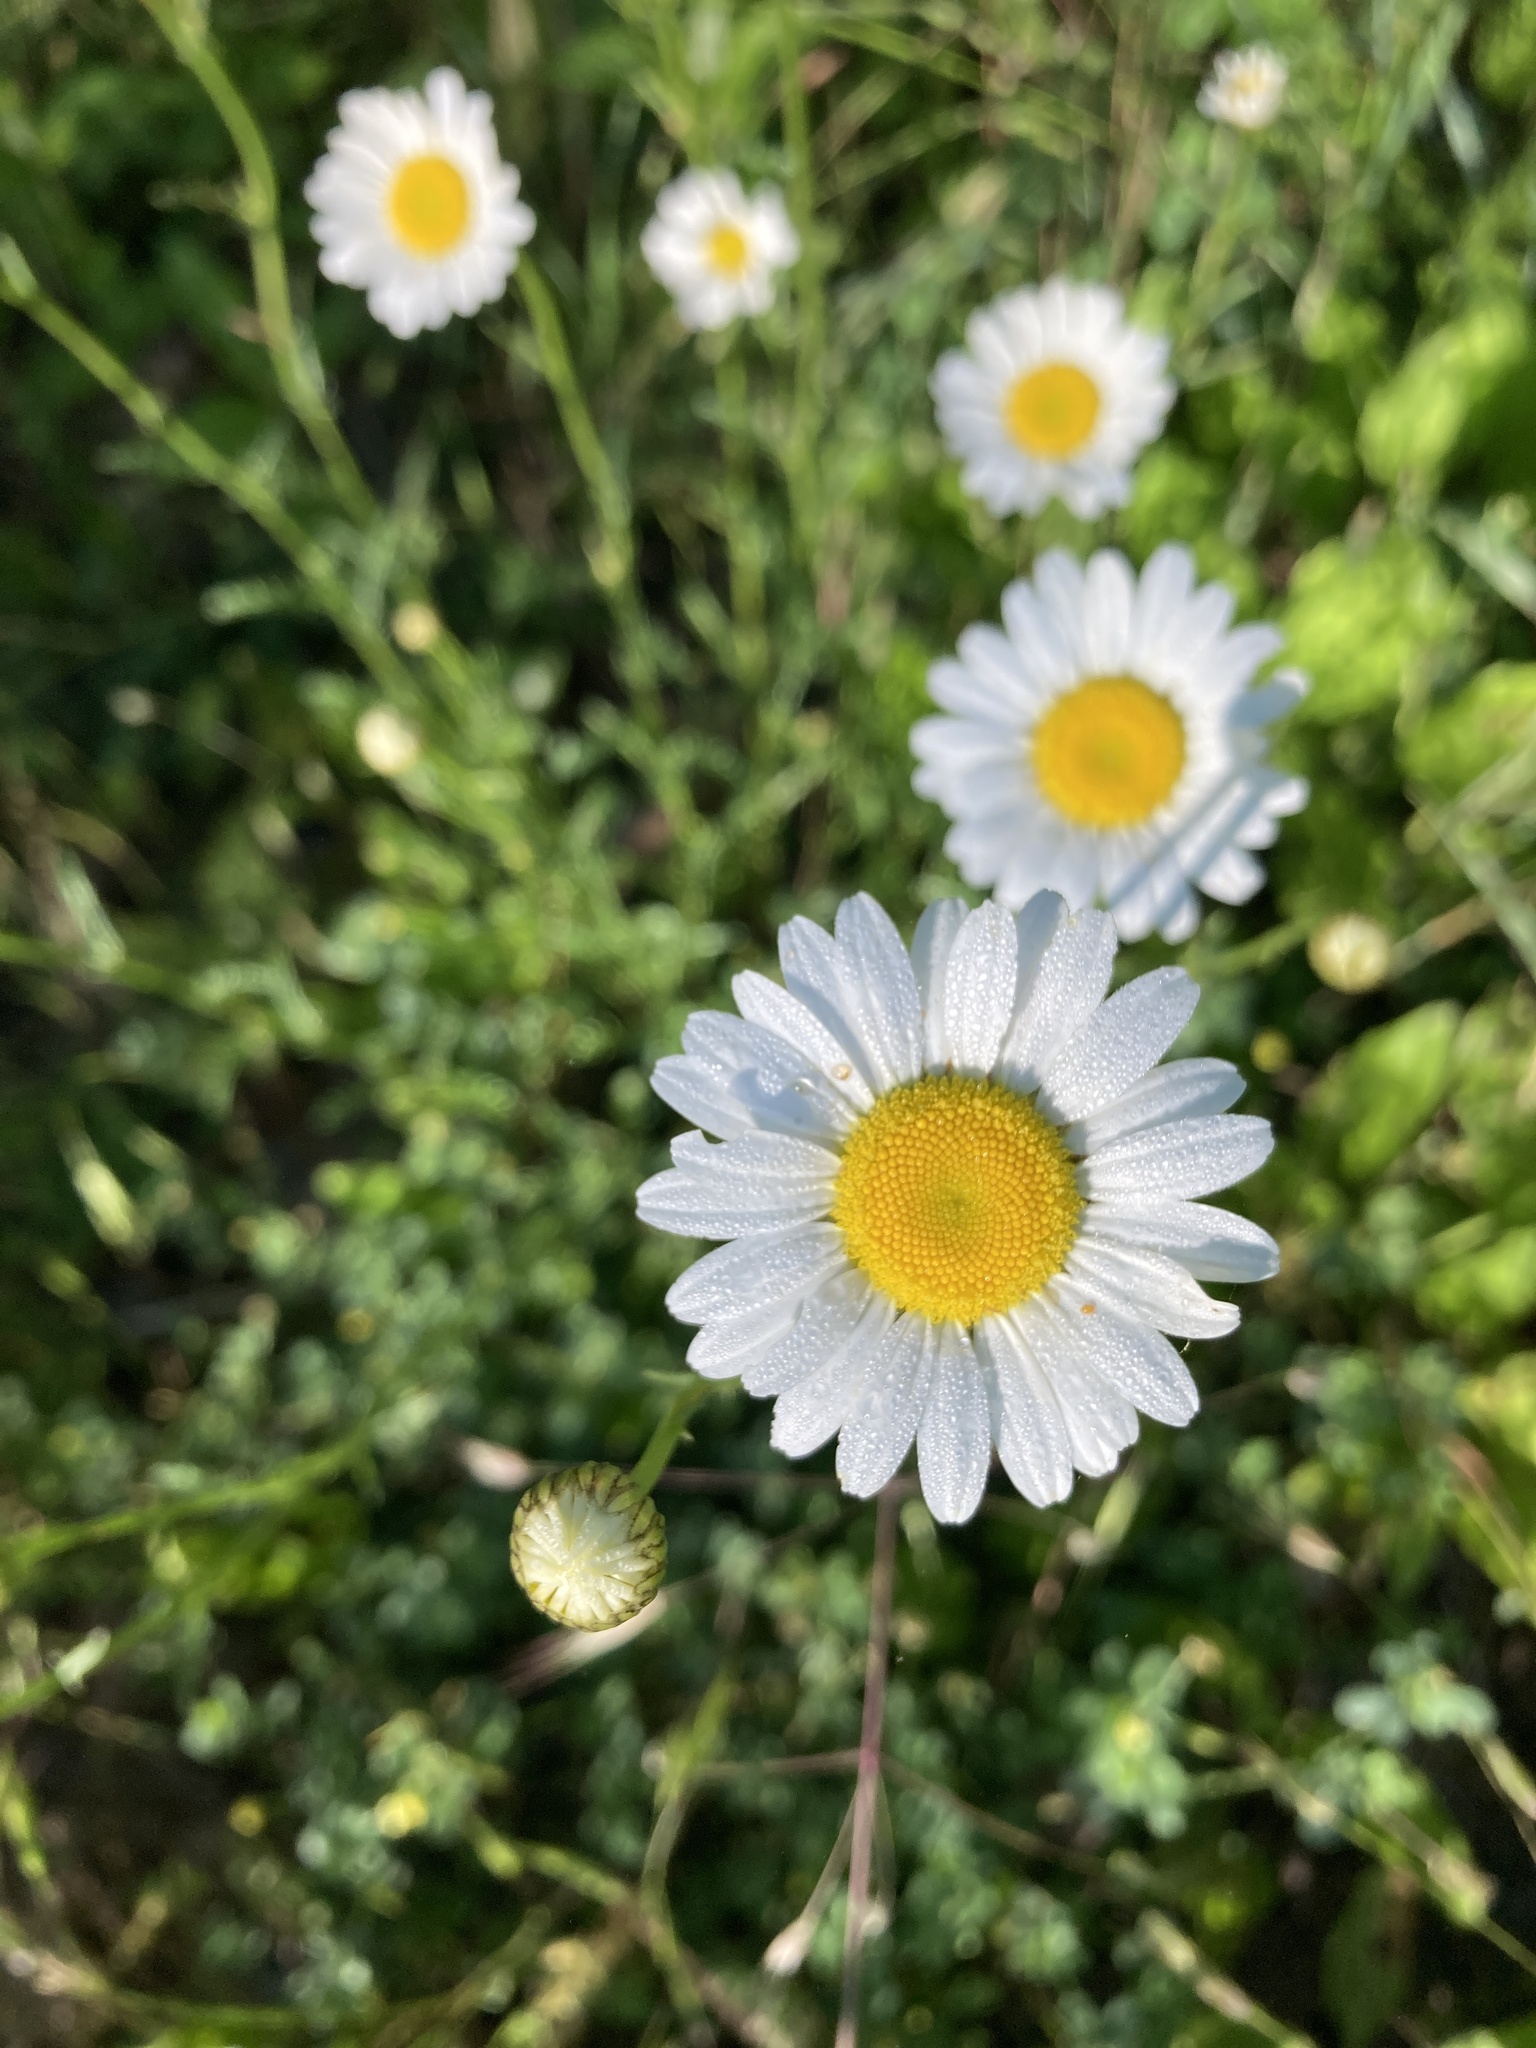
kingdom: Plantae
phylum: Tracheophyta
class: Magnoliopsida
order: Asterales
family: Asteraceae
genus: Leucanthemum
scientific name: Leucanthemum vulgare
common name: Oxeye daisy
